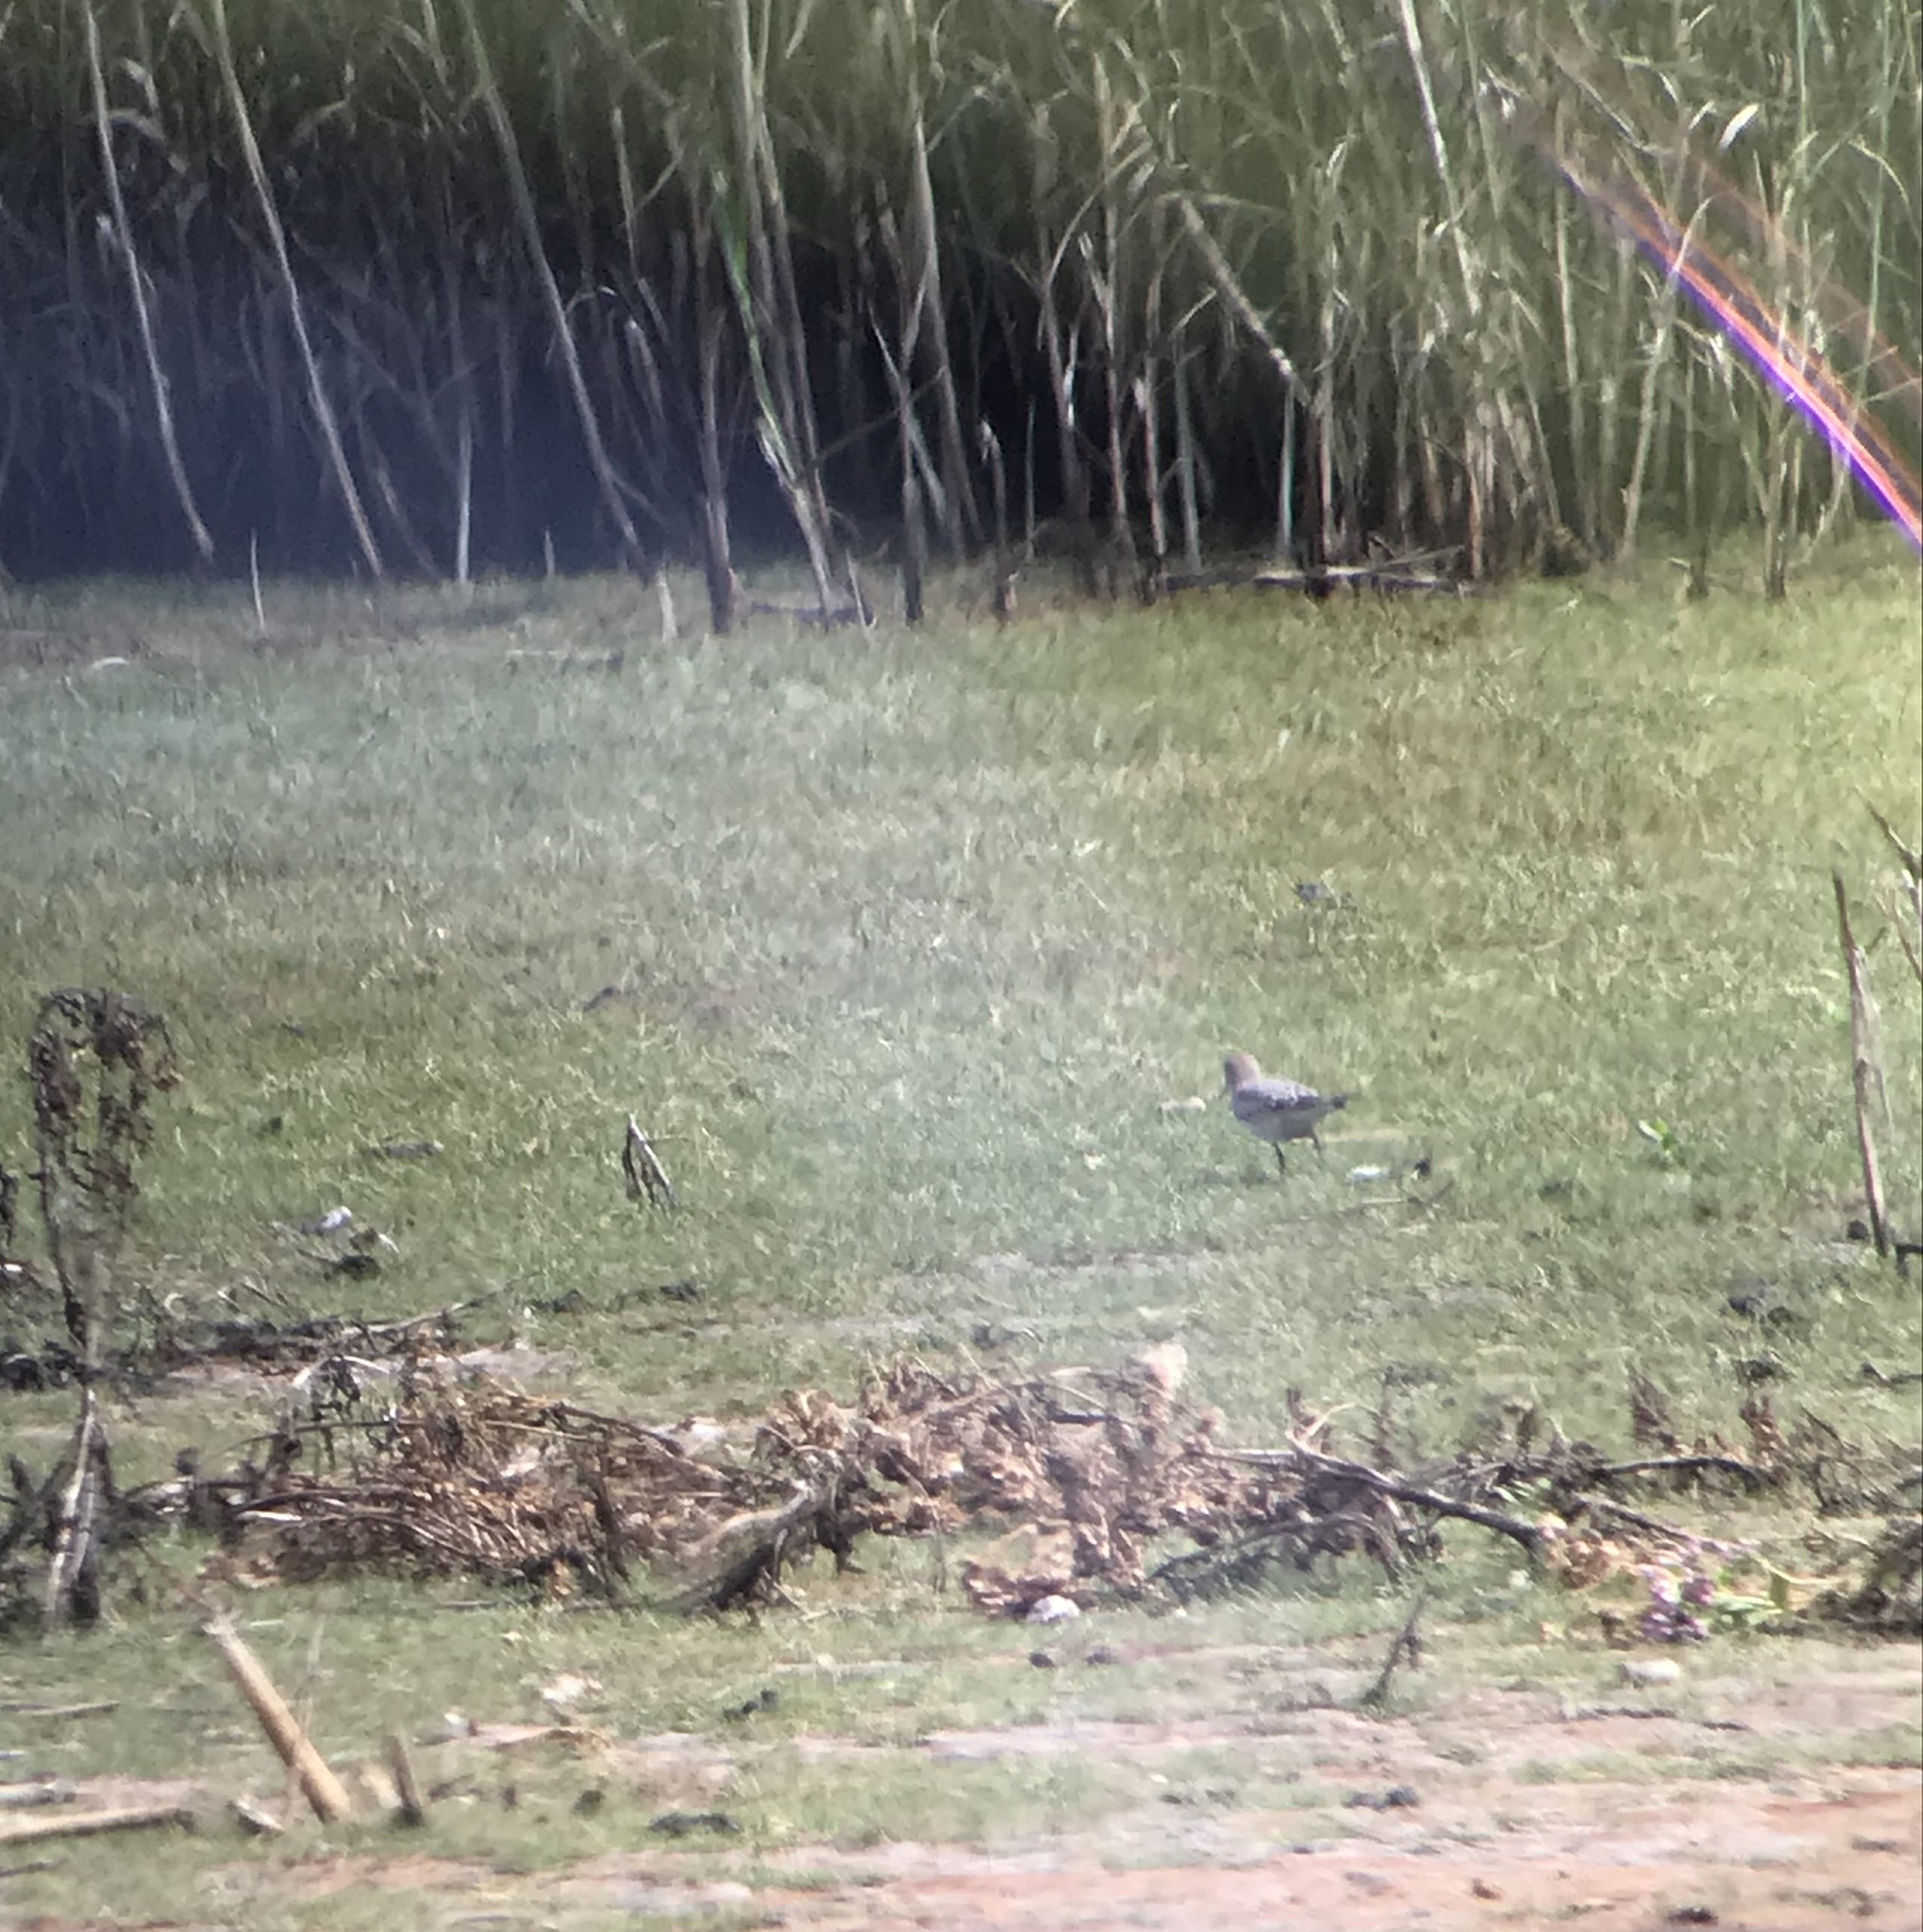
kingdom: Animalia
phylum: Chordata
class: Aves
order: Charadriiformes
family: Scolopacidae
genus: Calidris
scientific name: Calidris bairdii
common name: Baird's sandpiper
